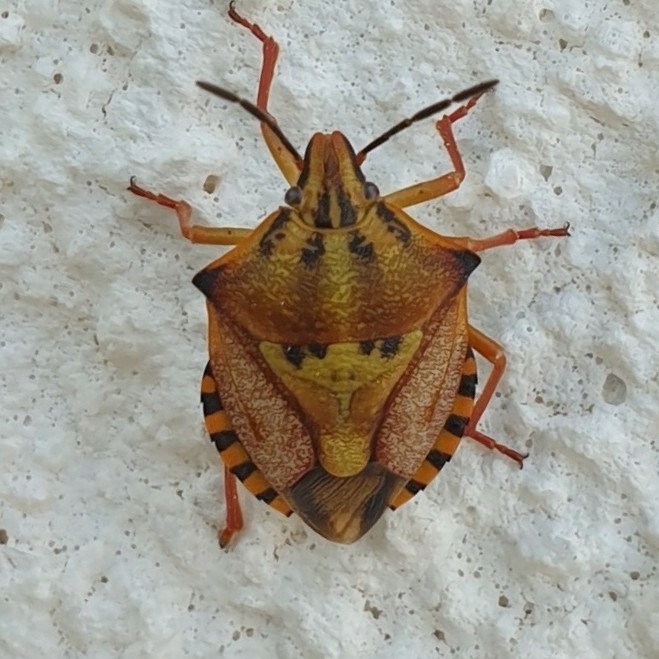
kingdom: Animalia
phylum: Arthropoda
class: Insecta
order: Hemiptera
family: Pentatomidae
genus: Carpocoris
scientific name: Carpocoris mediterraneus
